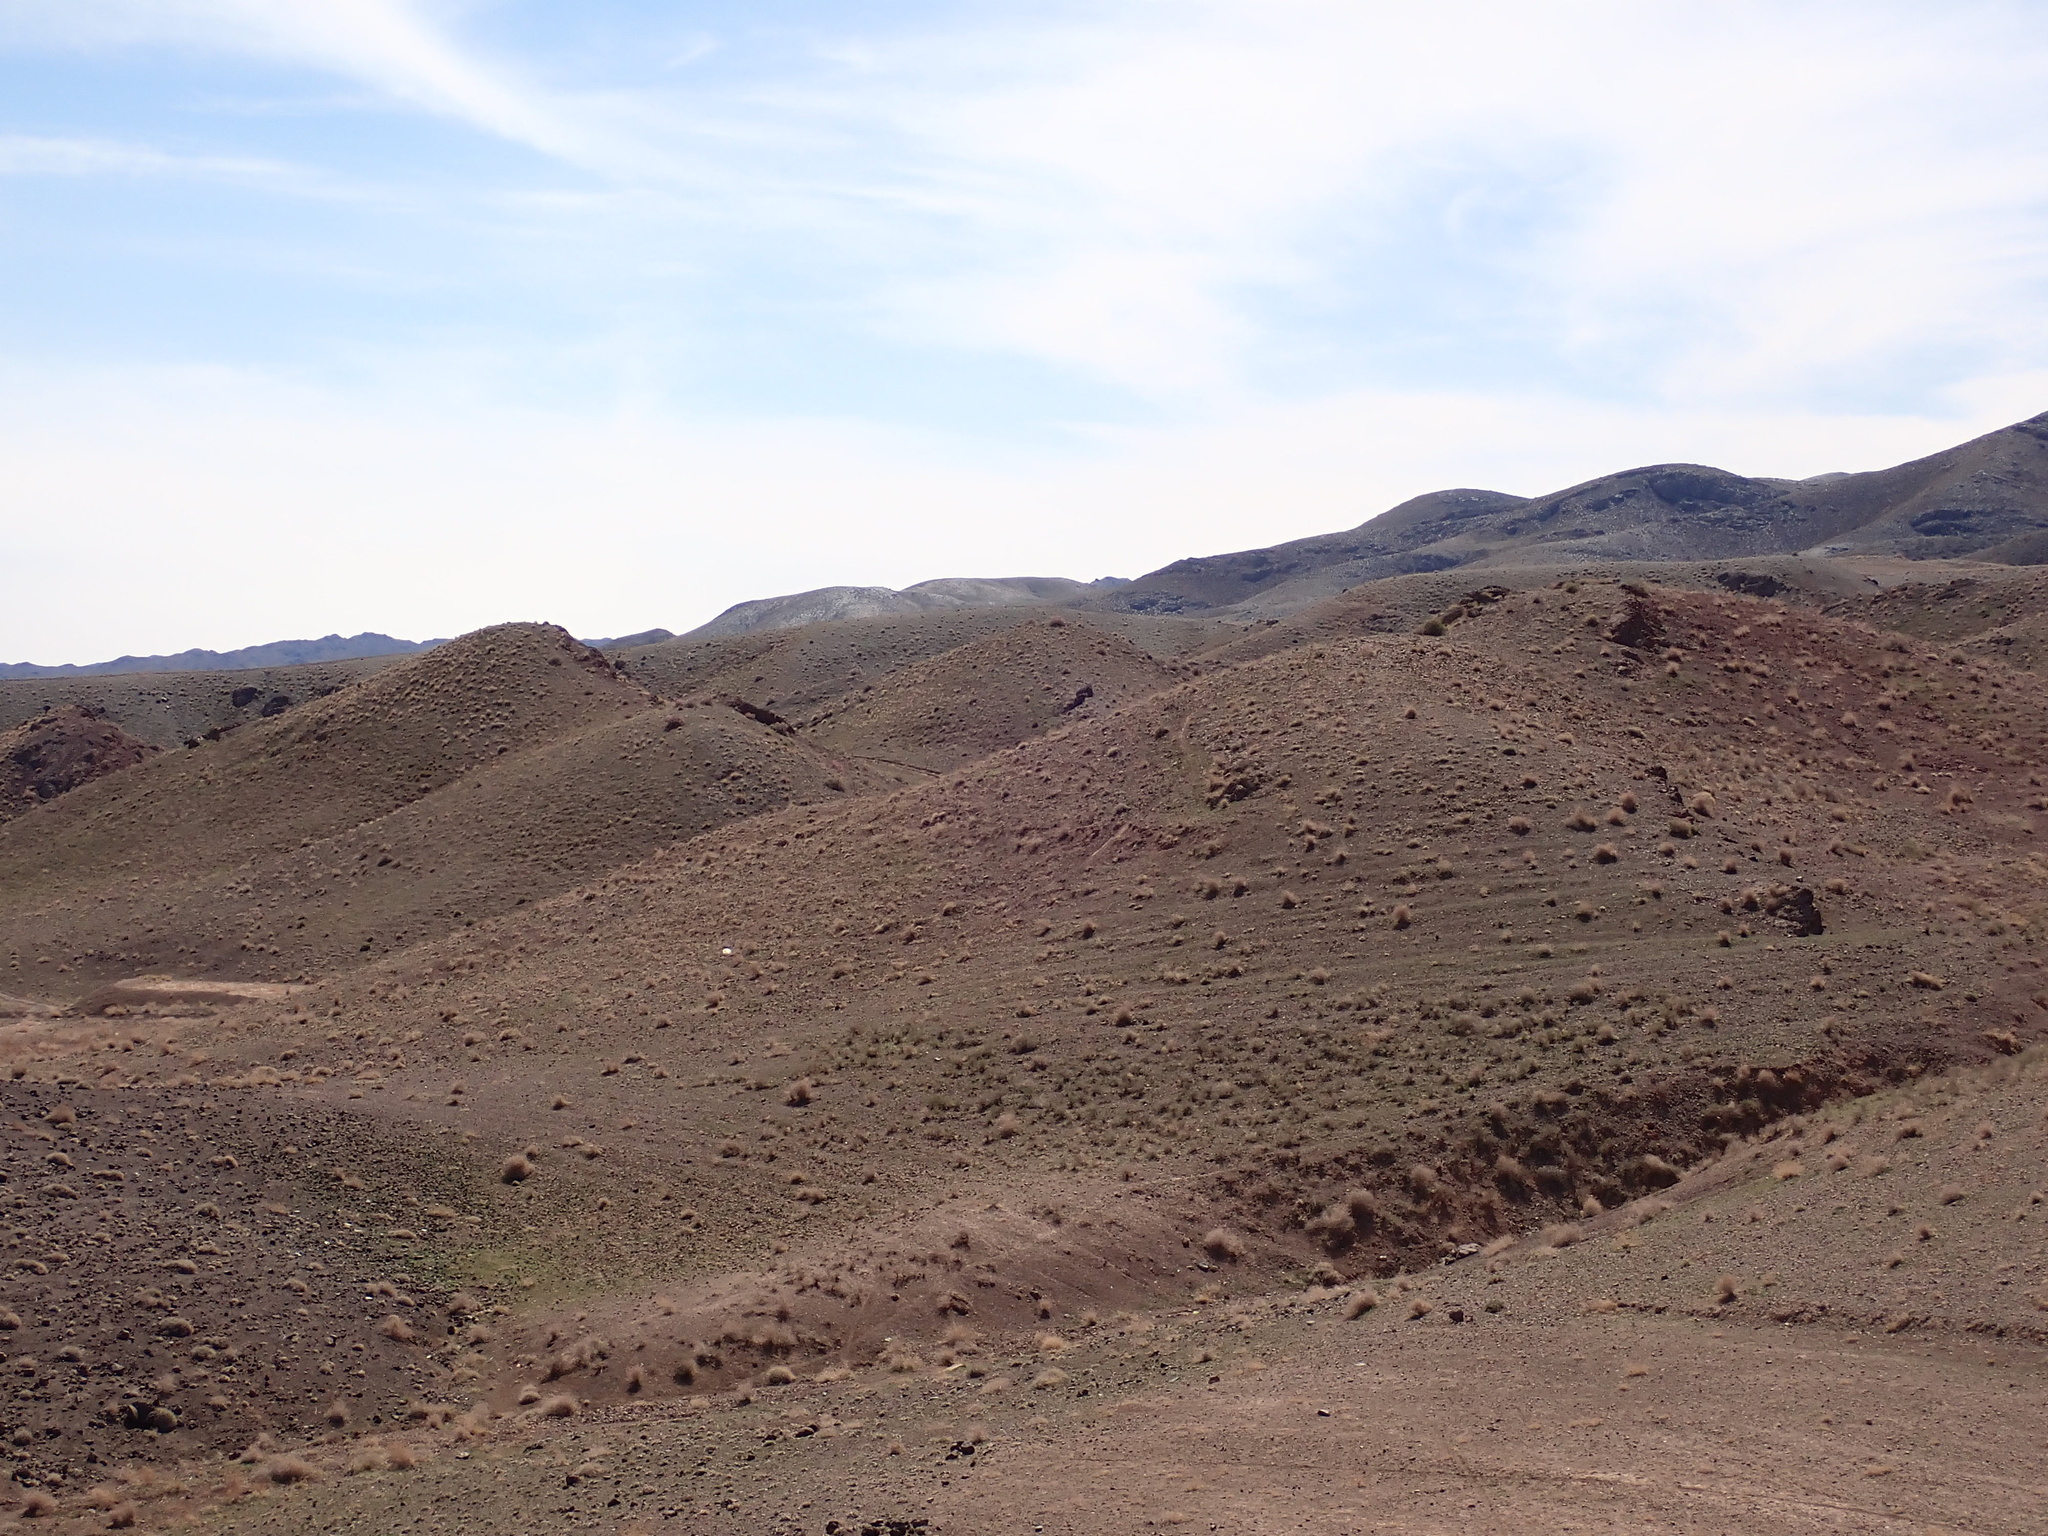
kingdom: Animalia
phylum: Arthropoda
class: Arachnida
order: Scorpiones
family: Buthidae
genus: Mesobuthus
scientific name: Mesobuthus afghanus
